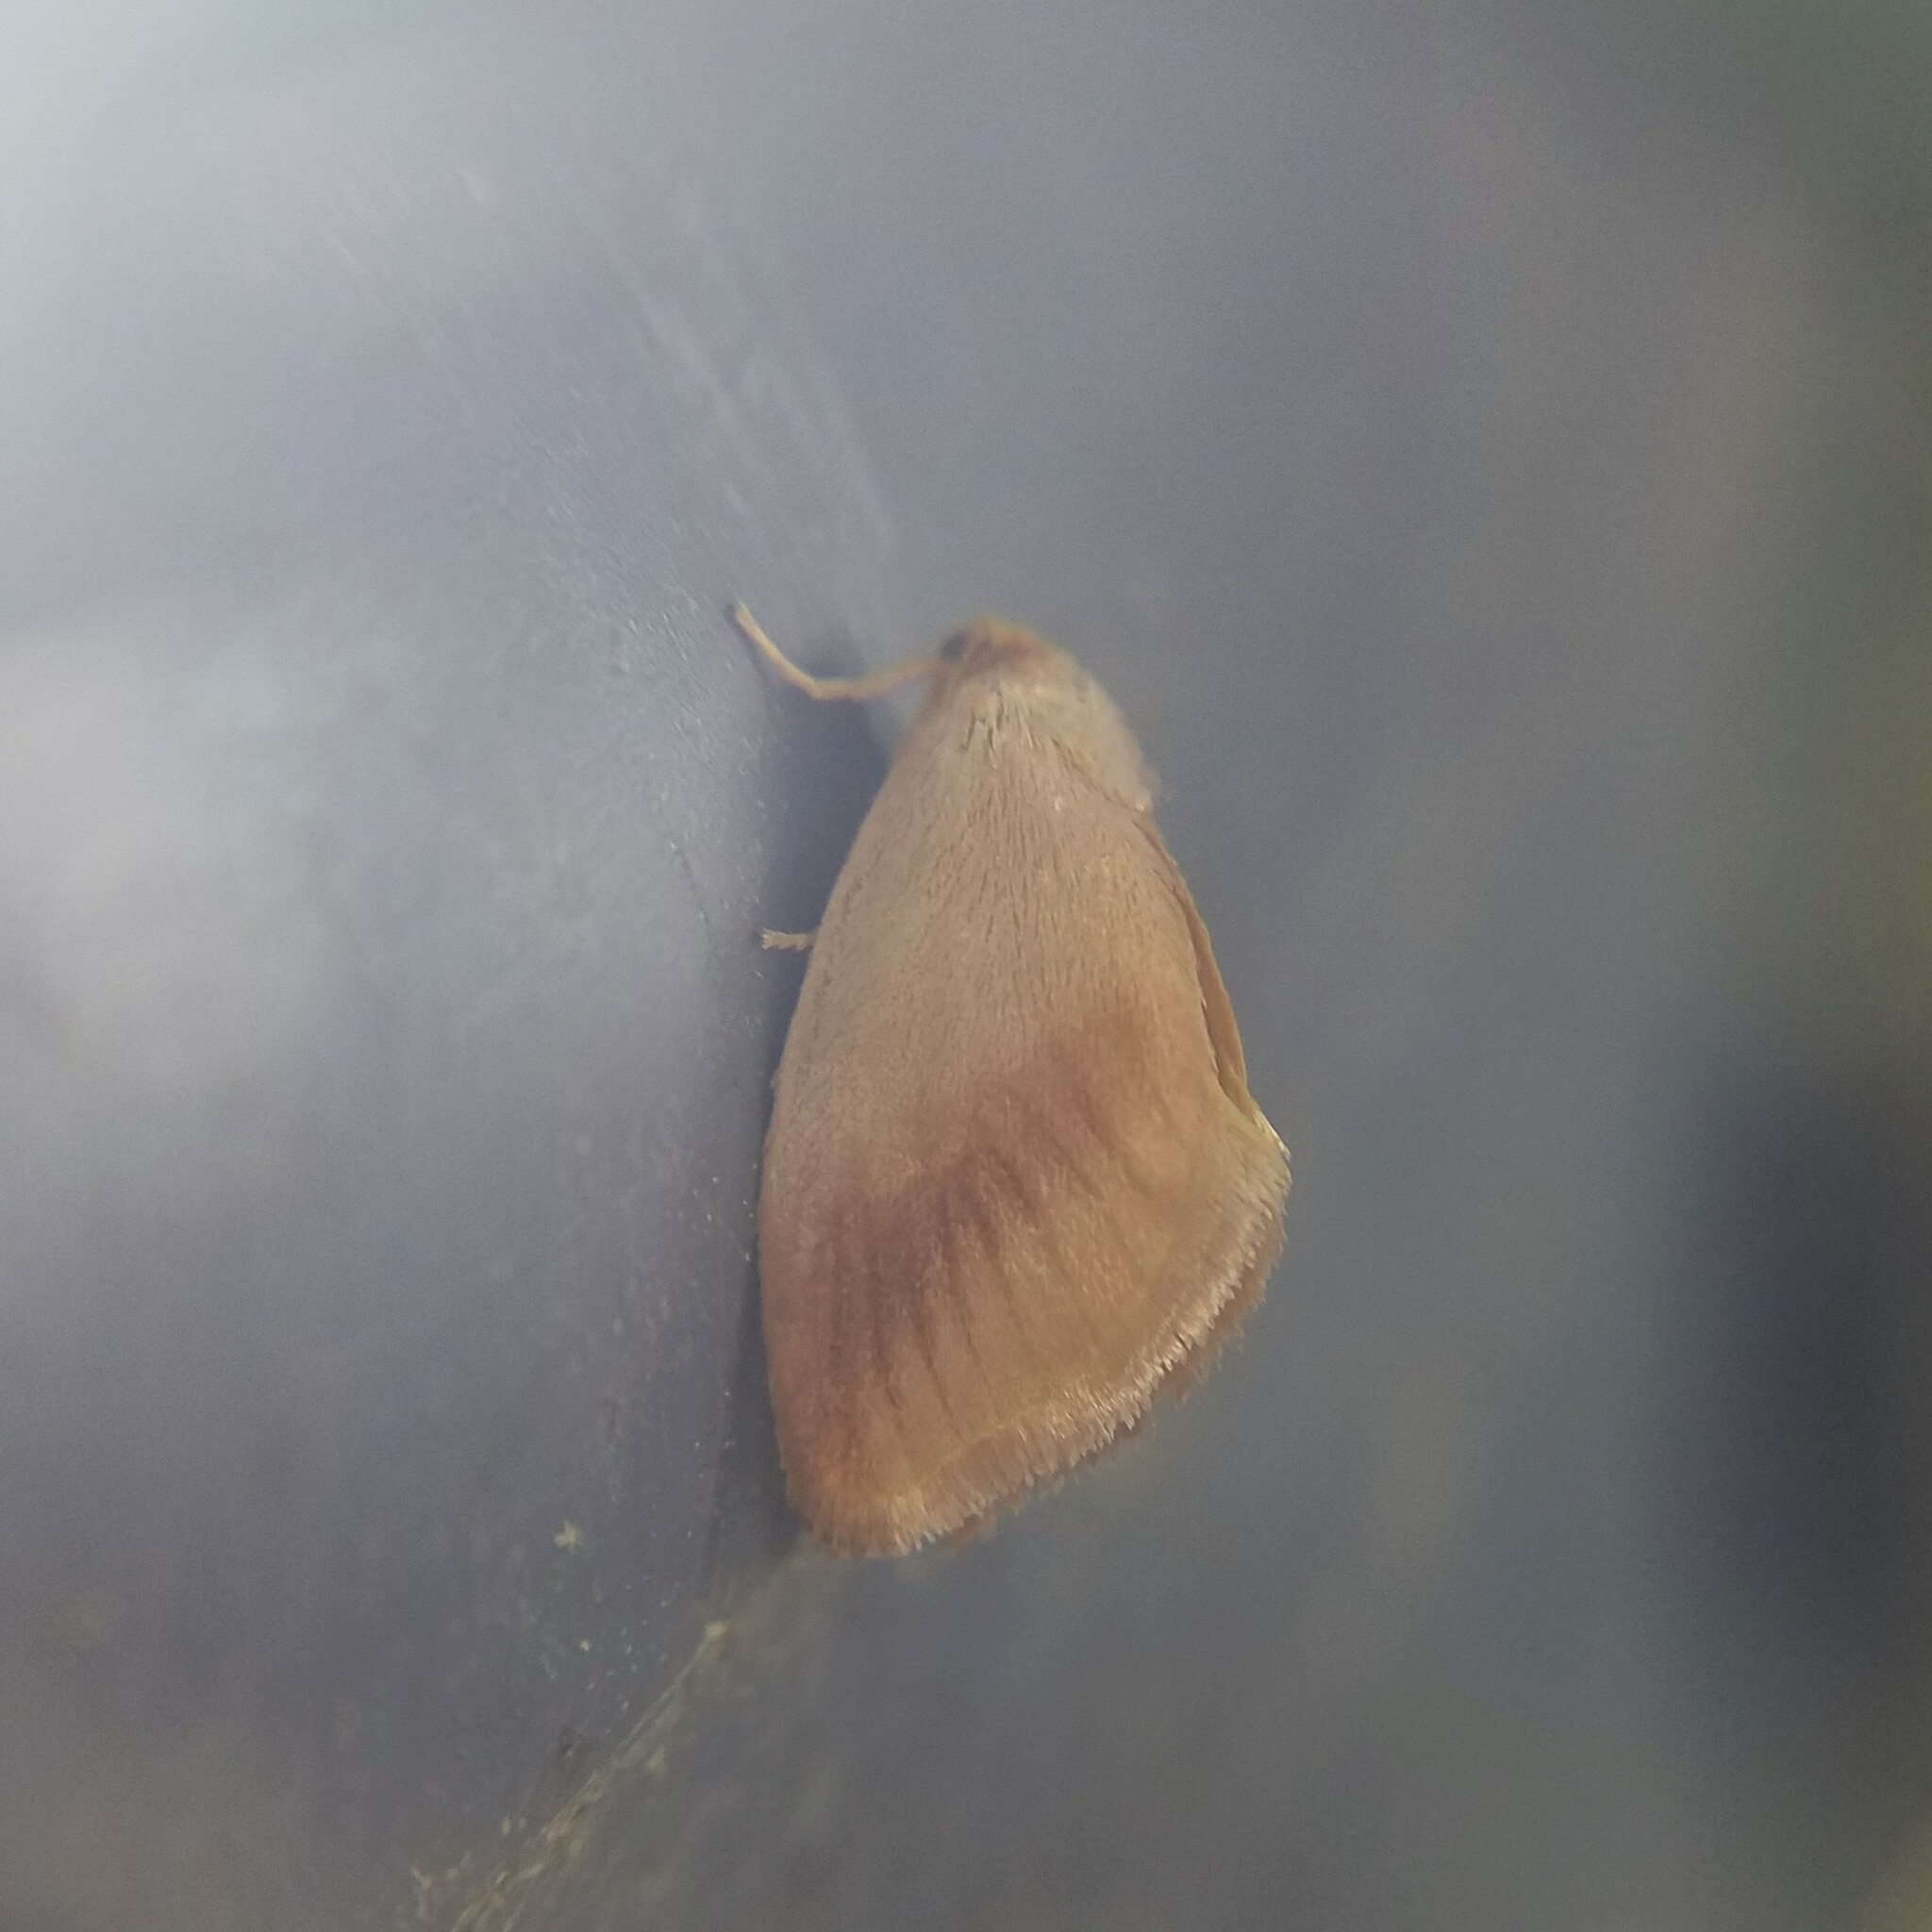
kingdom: Animalia
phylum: Arthropoda
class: Insecta
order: Lepidoptera
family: Limacodidae
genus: Tortricidia
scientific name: Tortricidia testacea
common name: Early button slug moth
